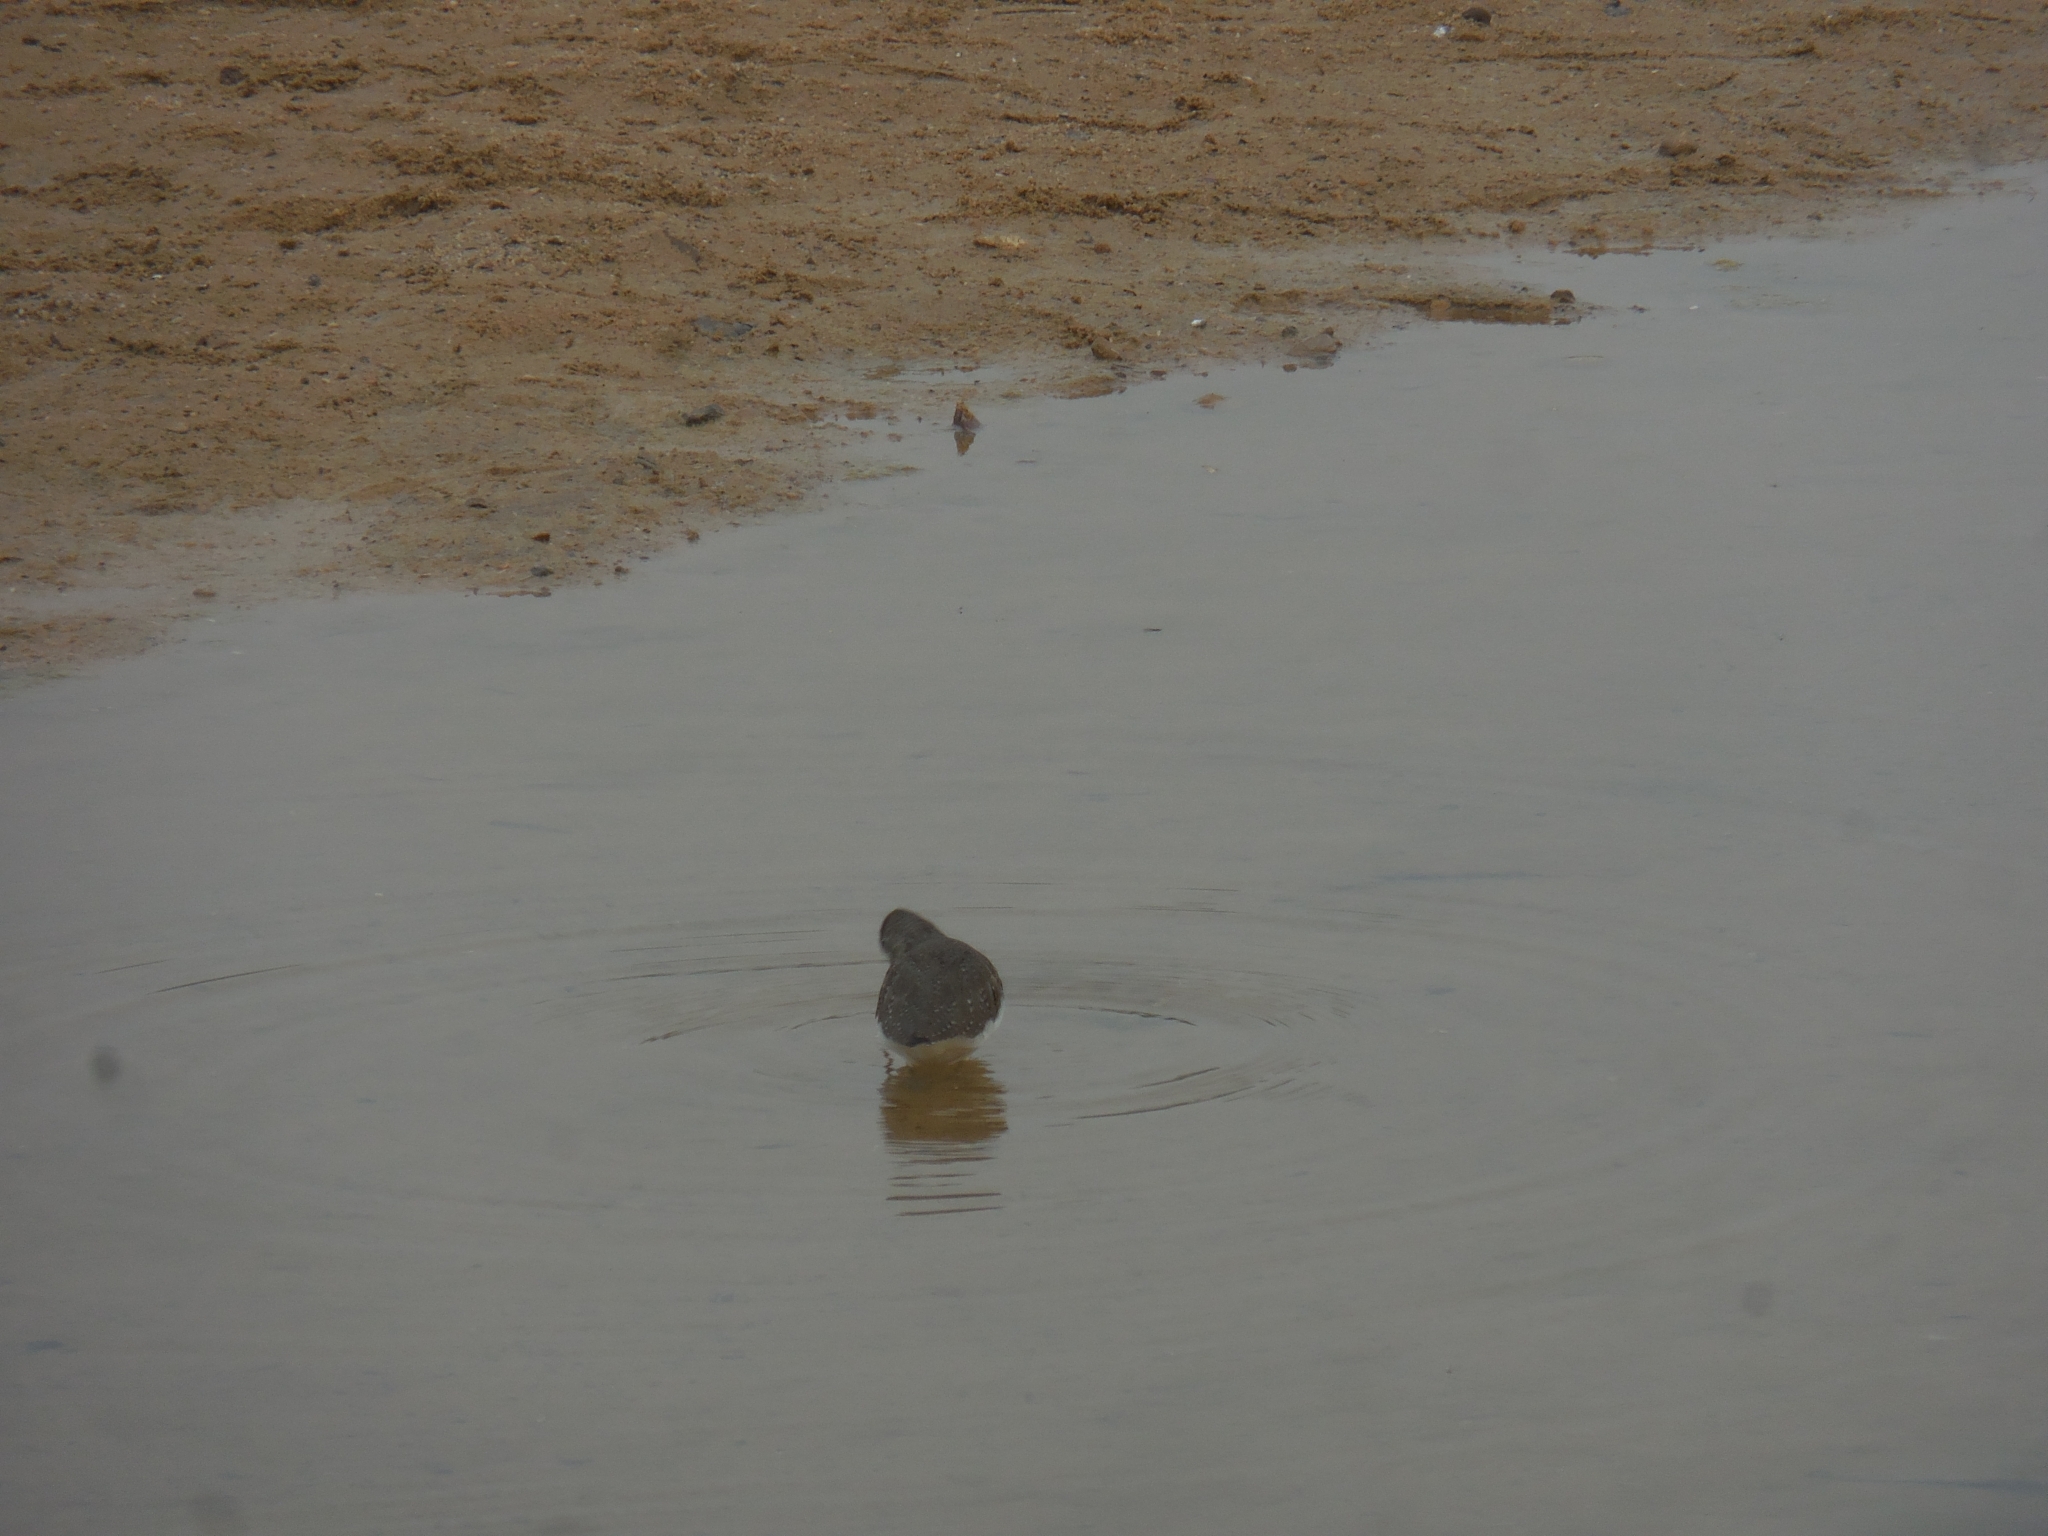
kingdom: Animalia
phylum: Chordata
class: Aves
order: Charadriiformes
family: Scolopacidae
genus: Tringa
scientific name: Tringa ochropus
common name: Green sandpiper
